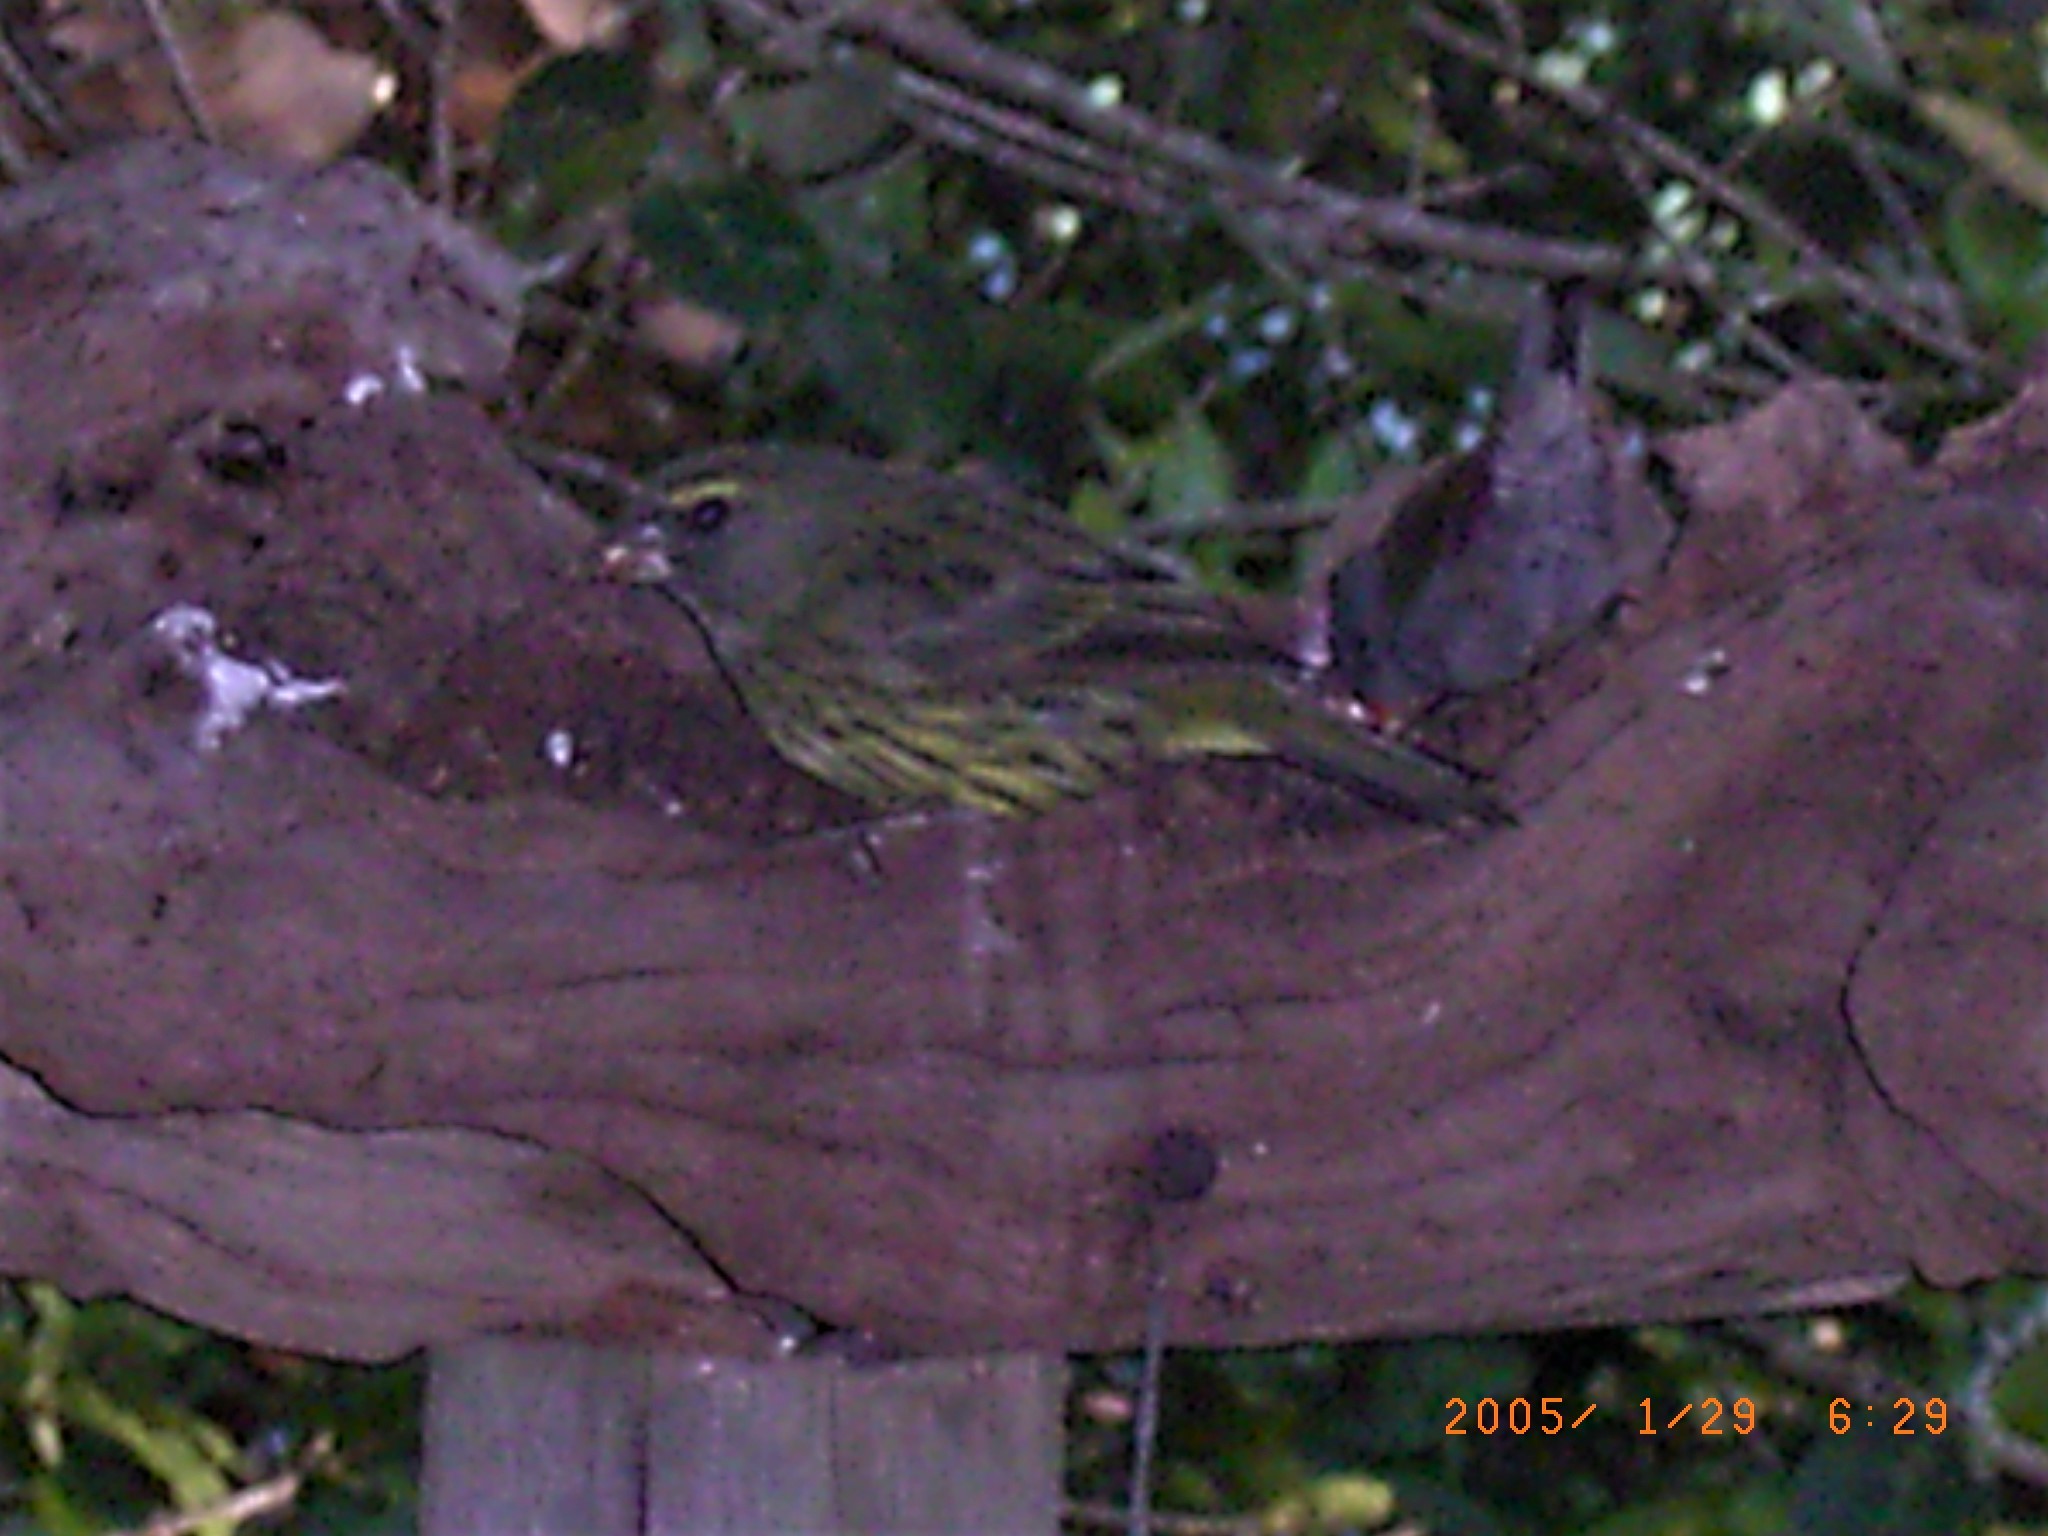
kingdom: Animalia
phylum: Chordata
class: Aves
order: Passeriformes
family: Fringillidae
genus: Crithagra
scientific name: Crithagra scotops
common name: Forest canary
